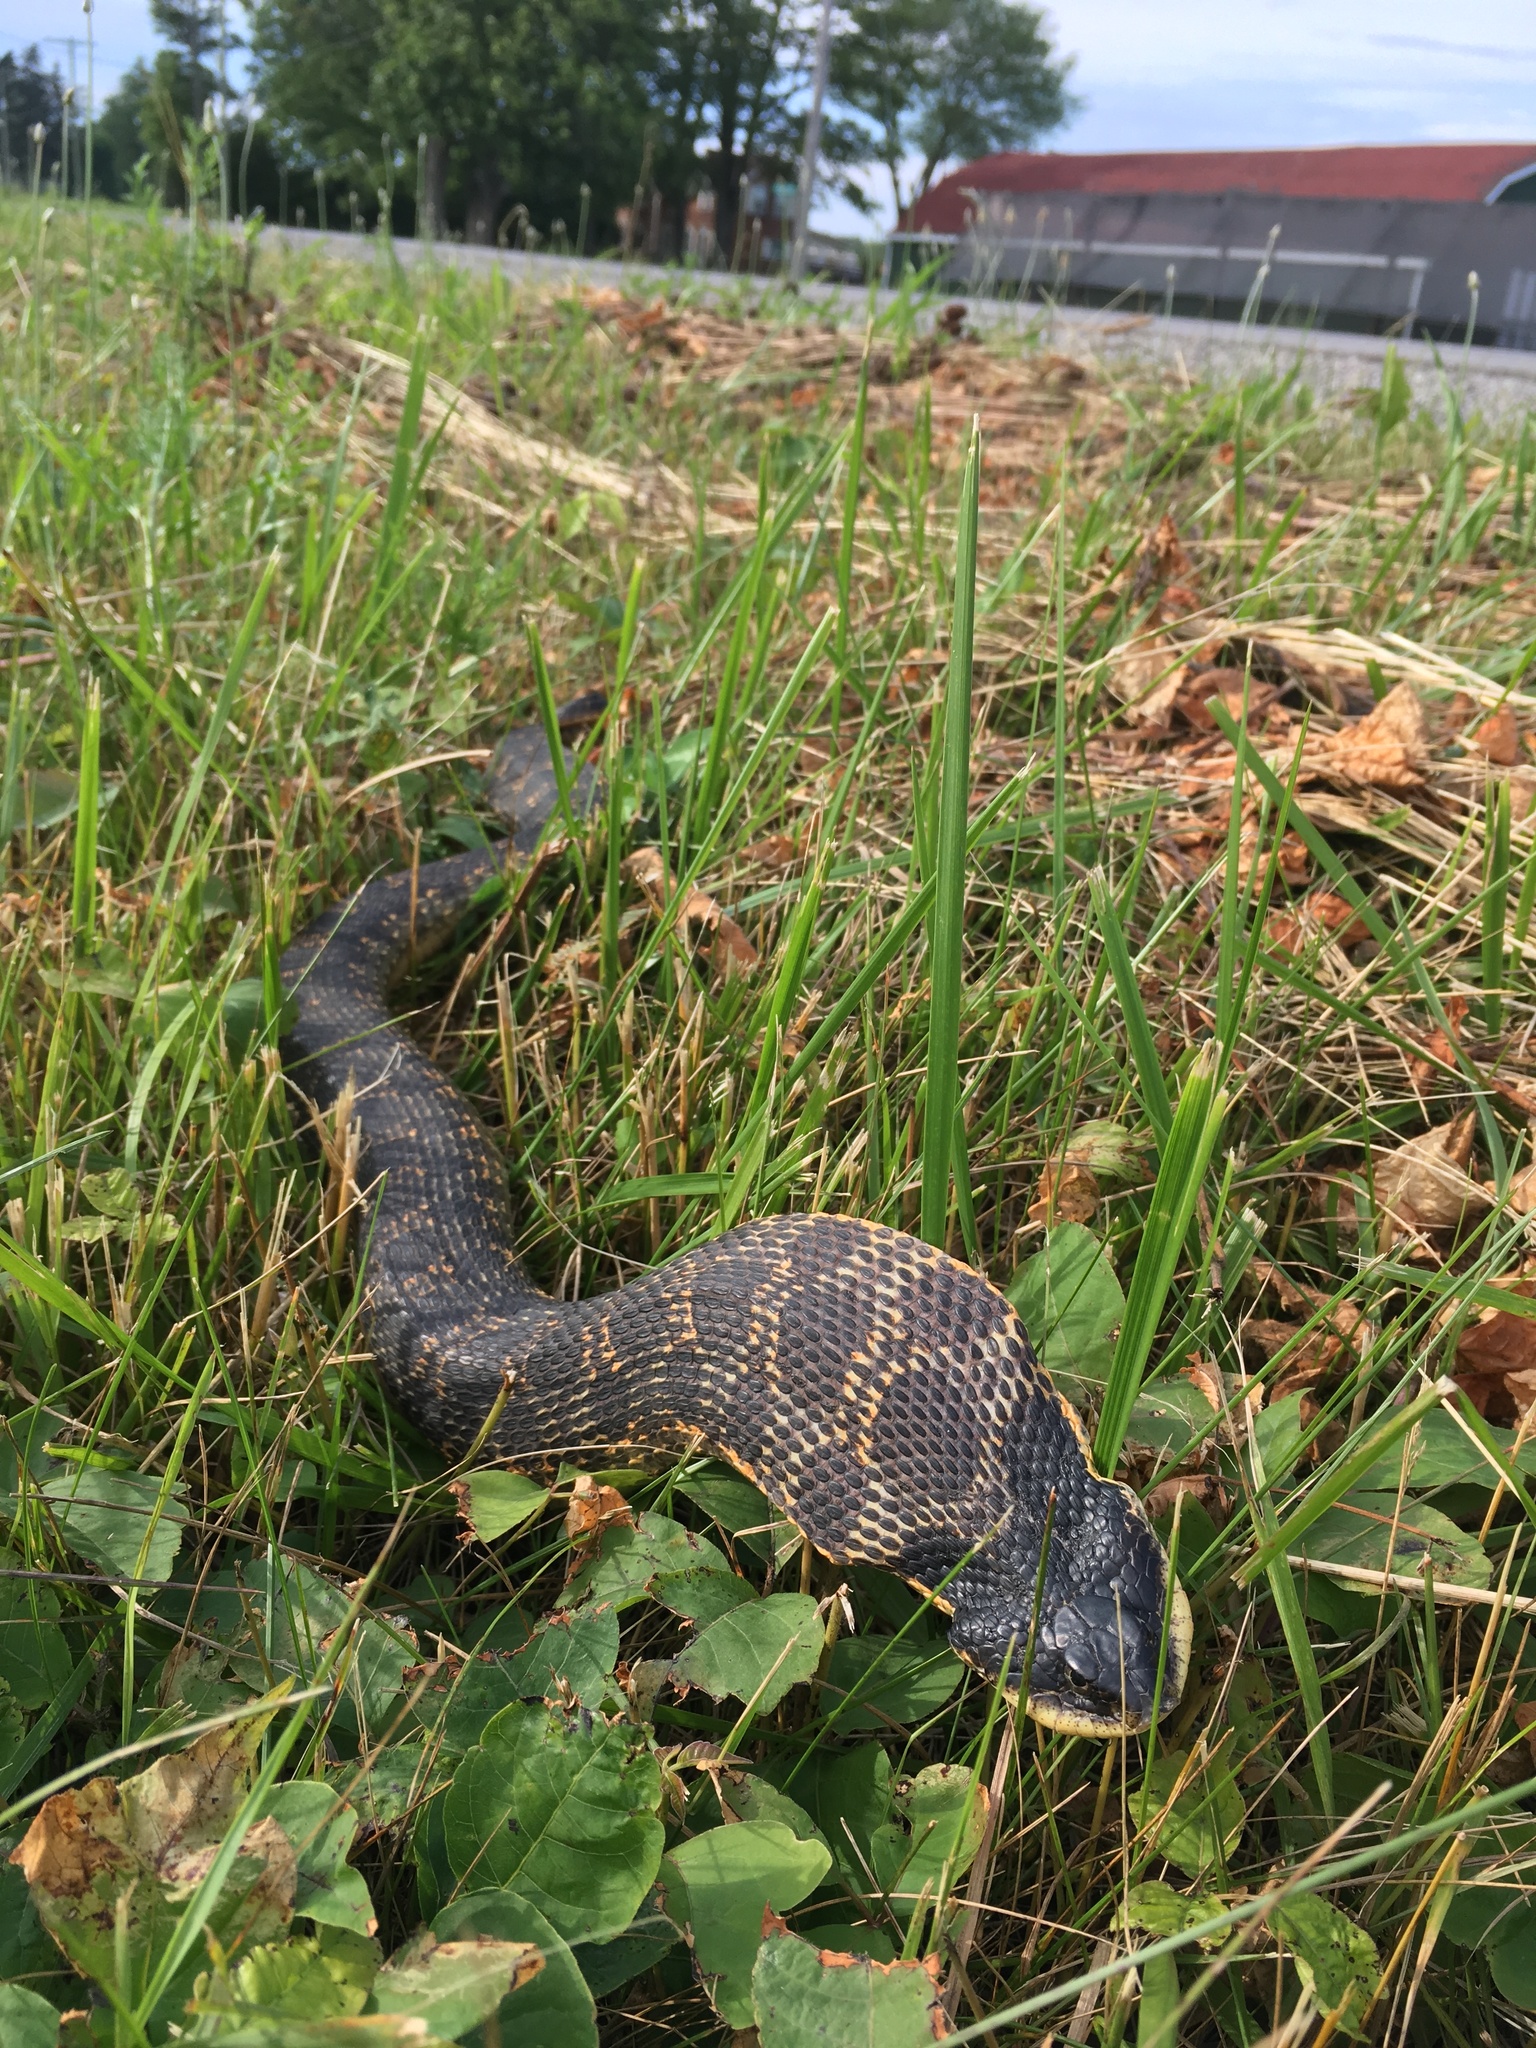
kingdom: Animalia
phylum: Chordata
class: Squamata
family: Colubridae
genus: Heterodon
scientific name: Heterodon platirhinos
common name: Eastern hognose snake
